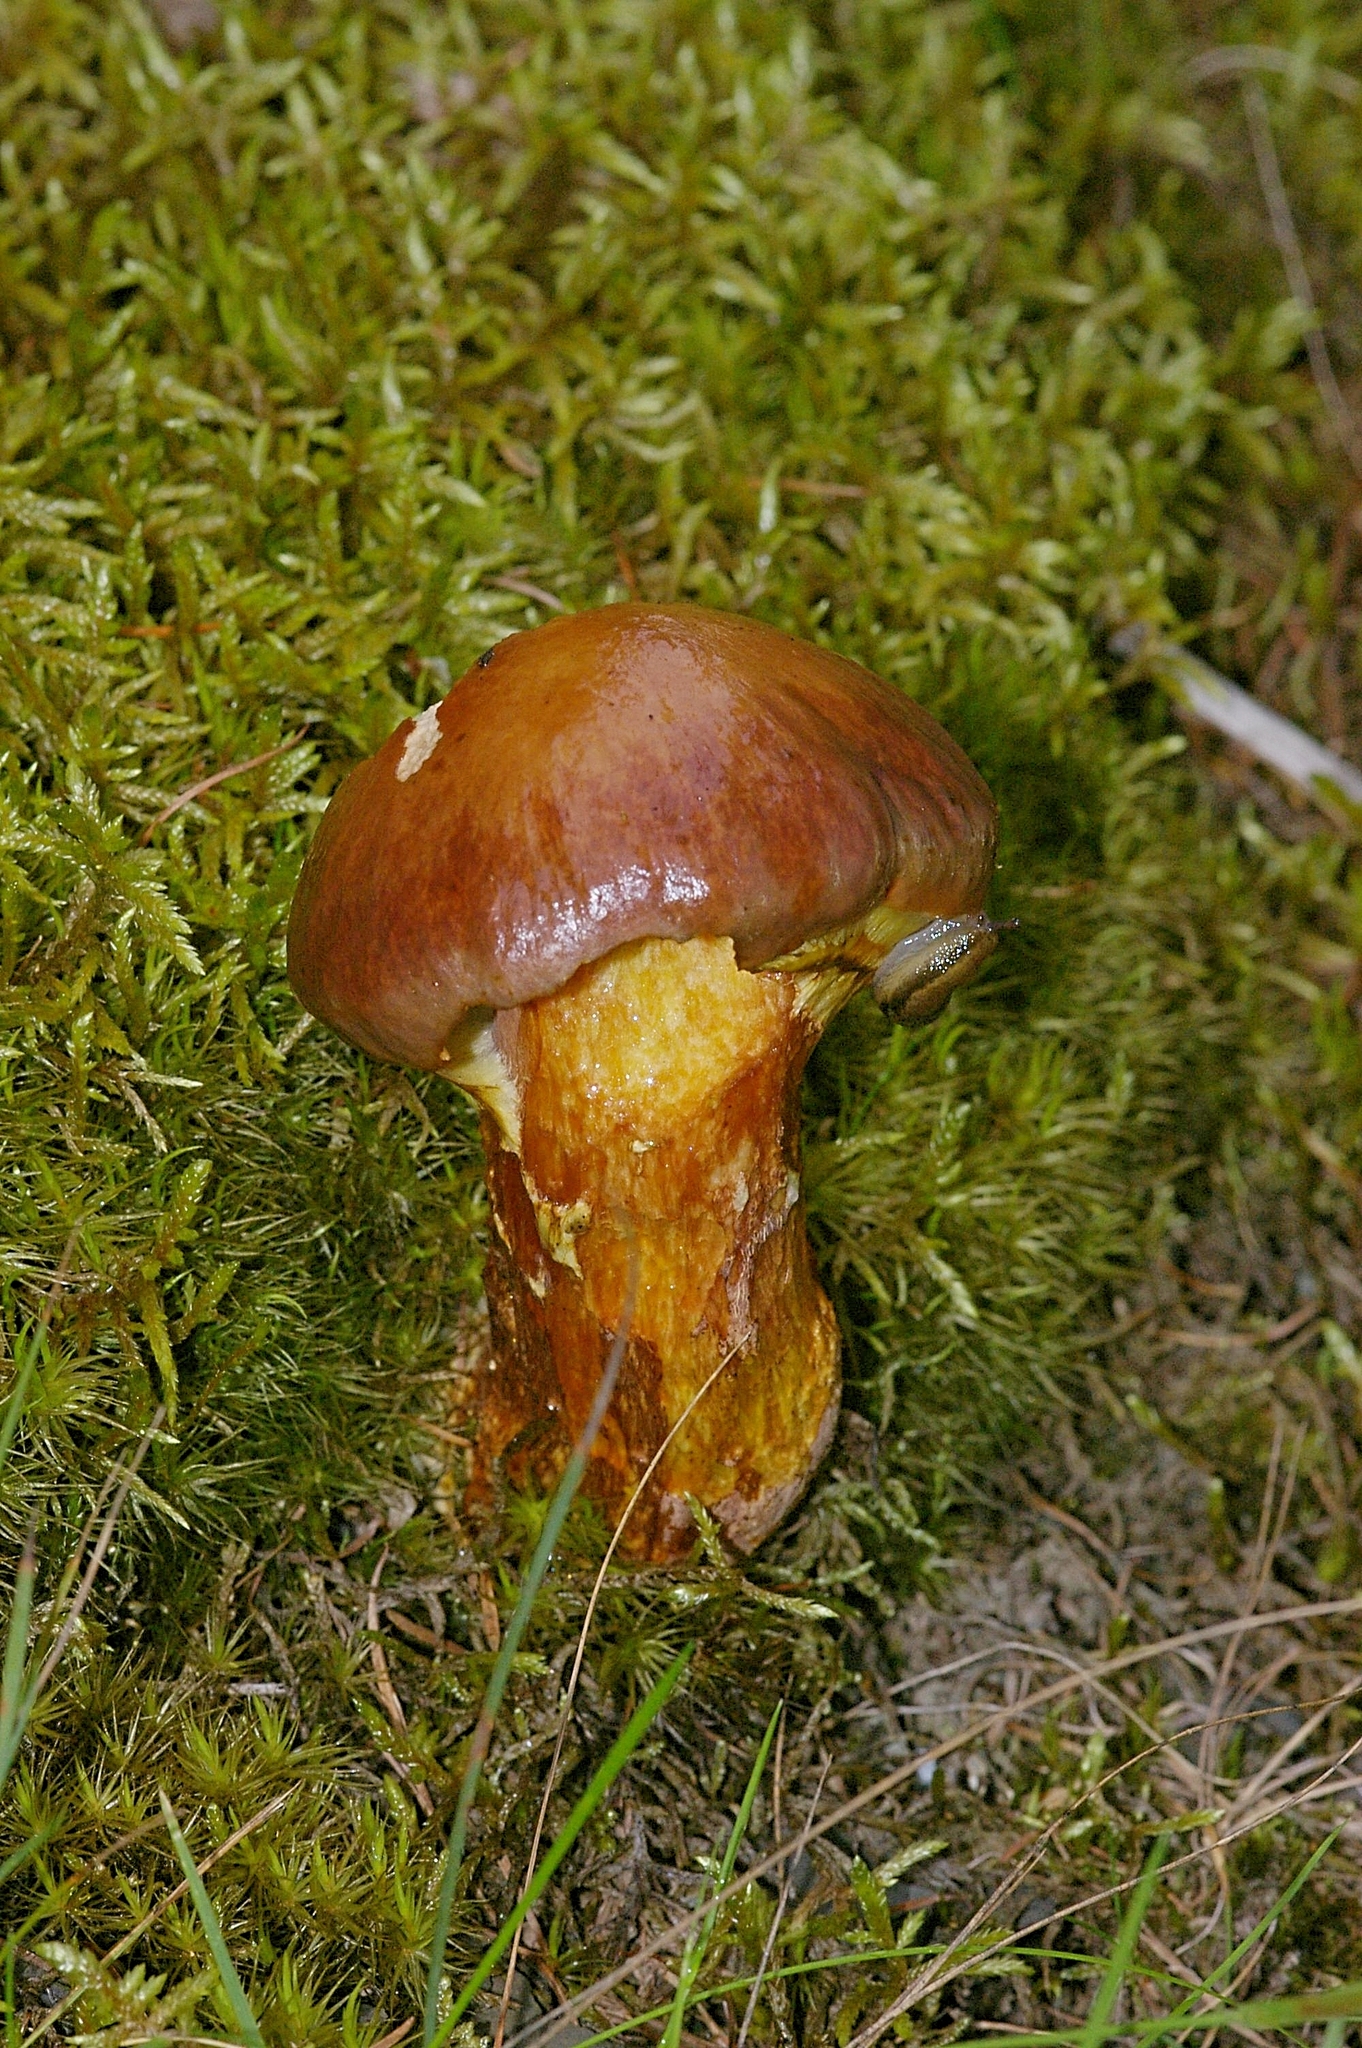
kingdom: Fungi
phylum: Basidiomycota
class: Agaricomycetes
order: Boletales
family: Suillaceae
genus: Suillus
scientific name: Suillus grevillei
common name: Larch bolete
